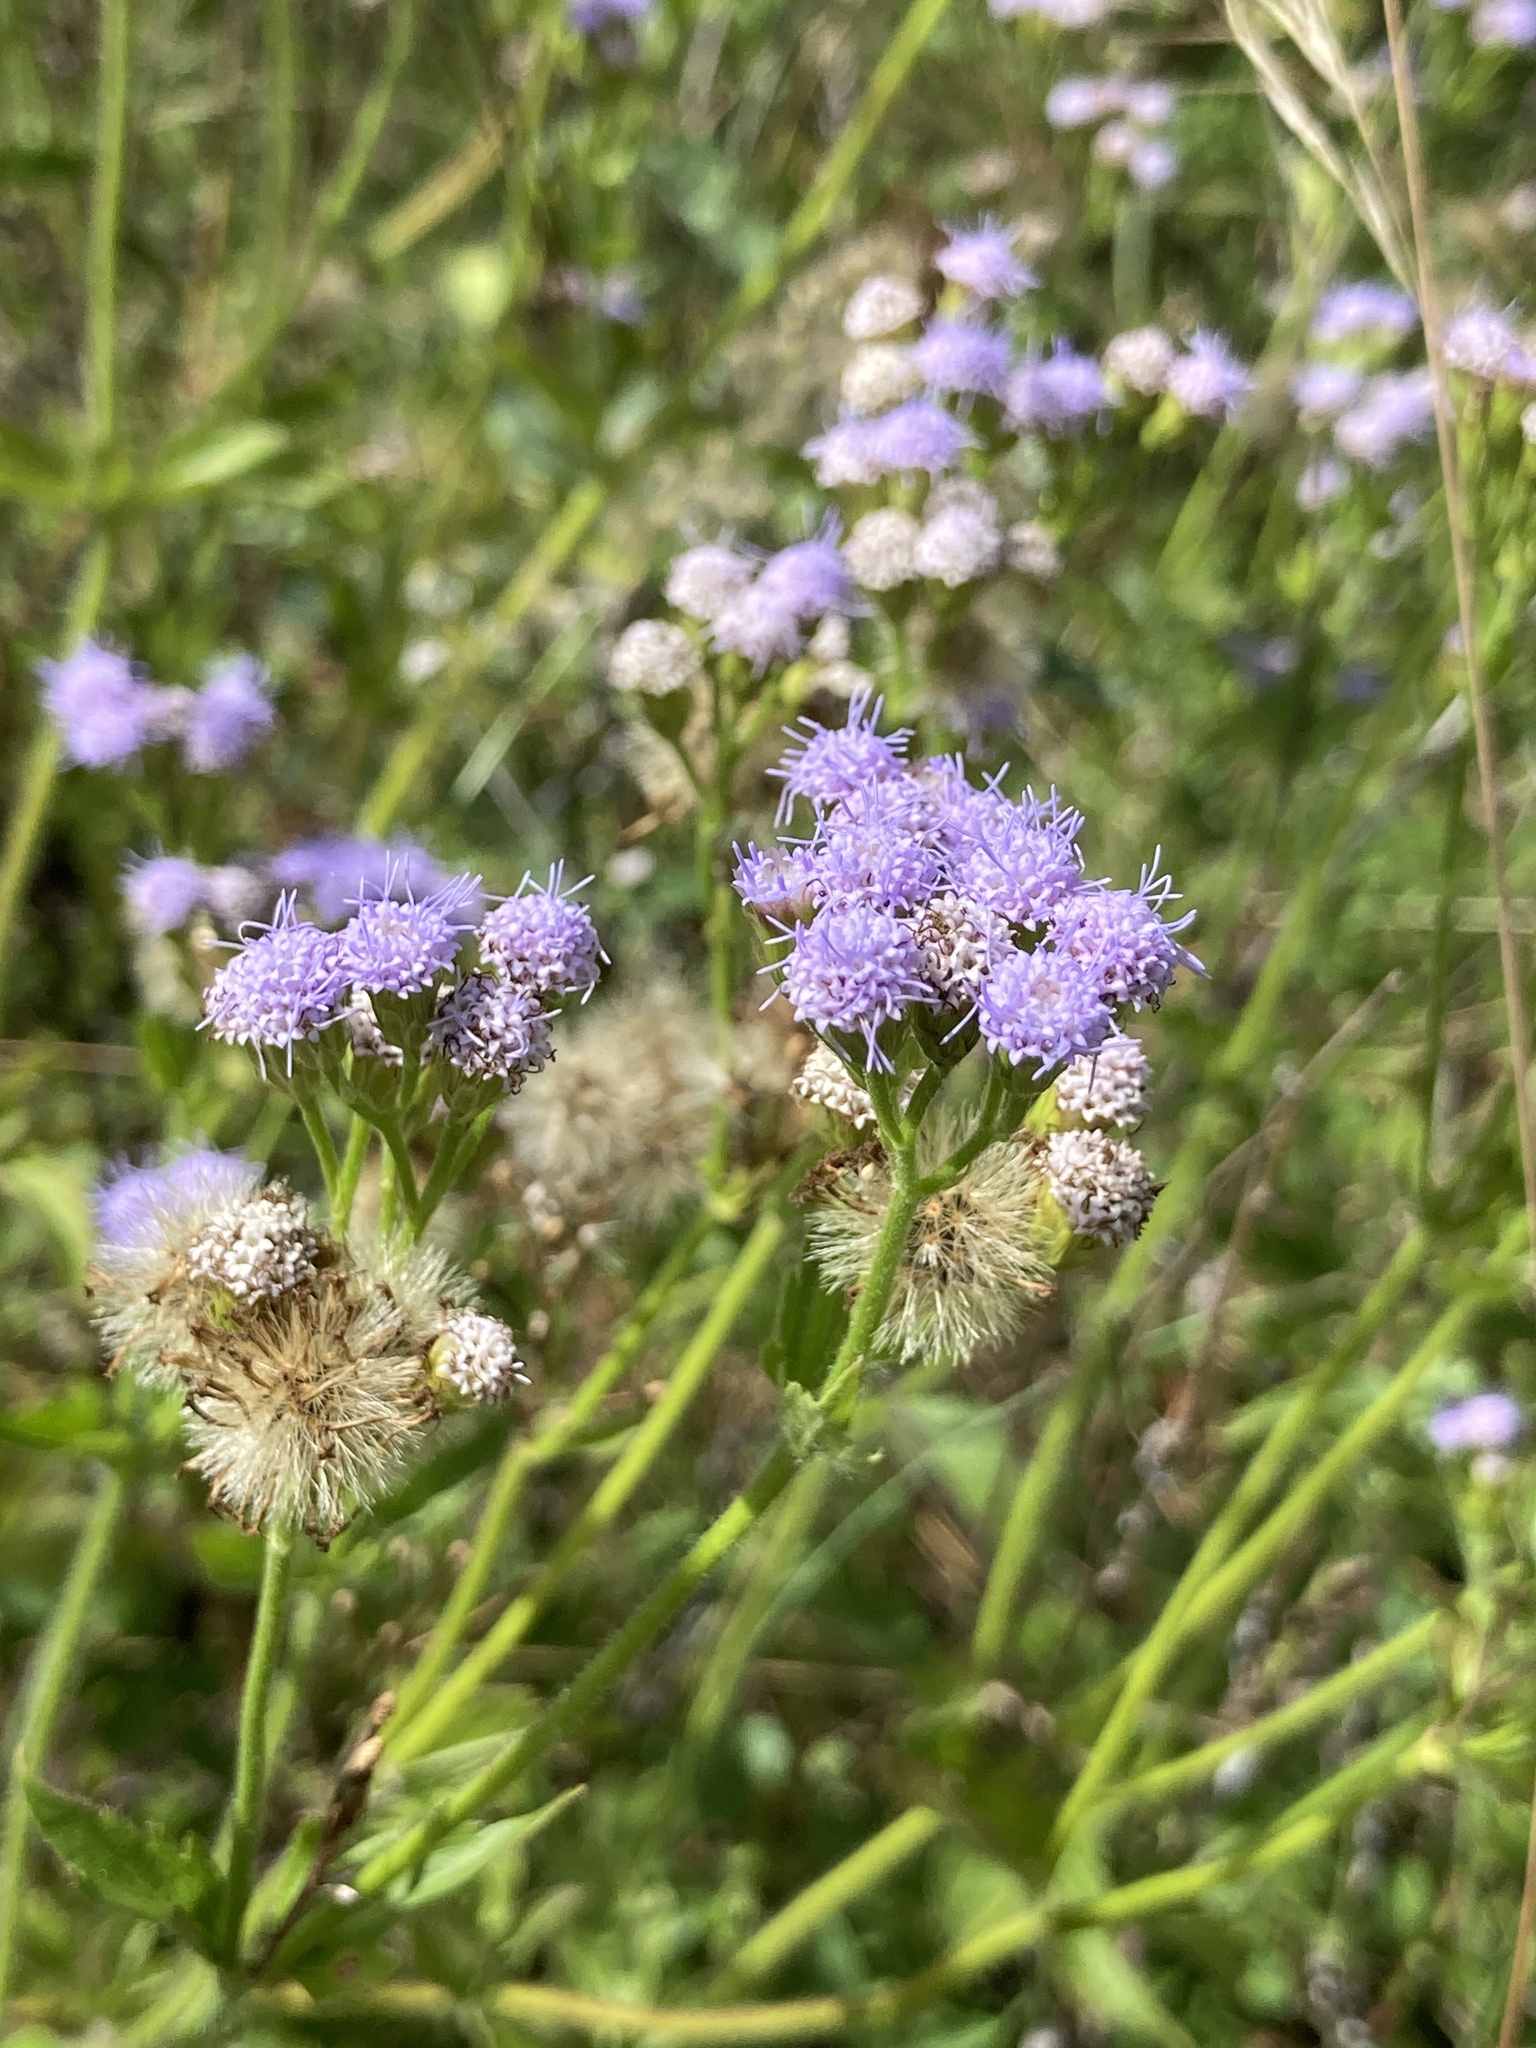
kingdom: Plantae
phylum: Tracheophyta
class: Magnoliopsida
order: Asterales
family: Asteraceae
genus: Praxelis
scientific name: Praxelis clematidea
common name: Praxelis
